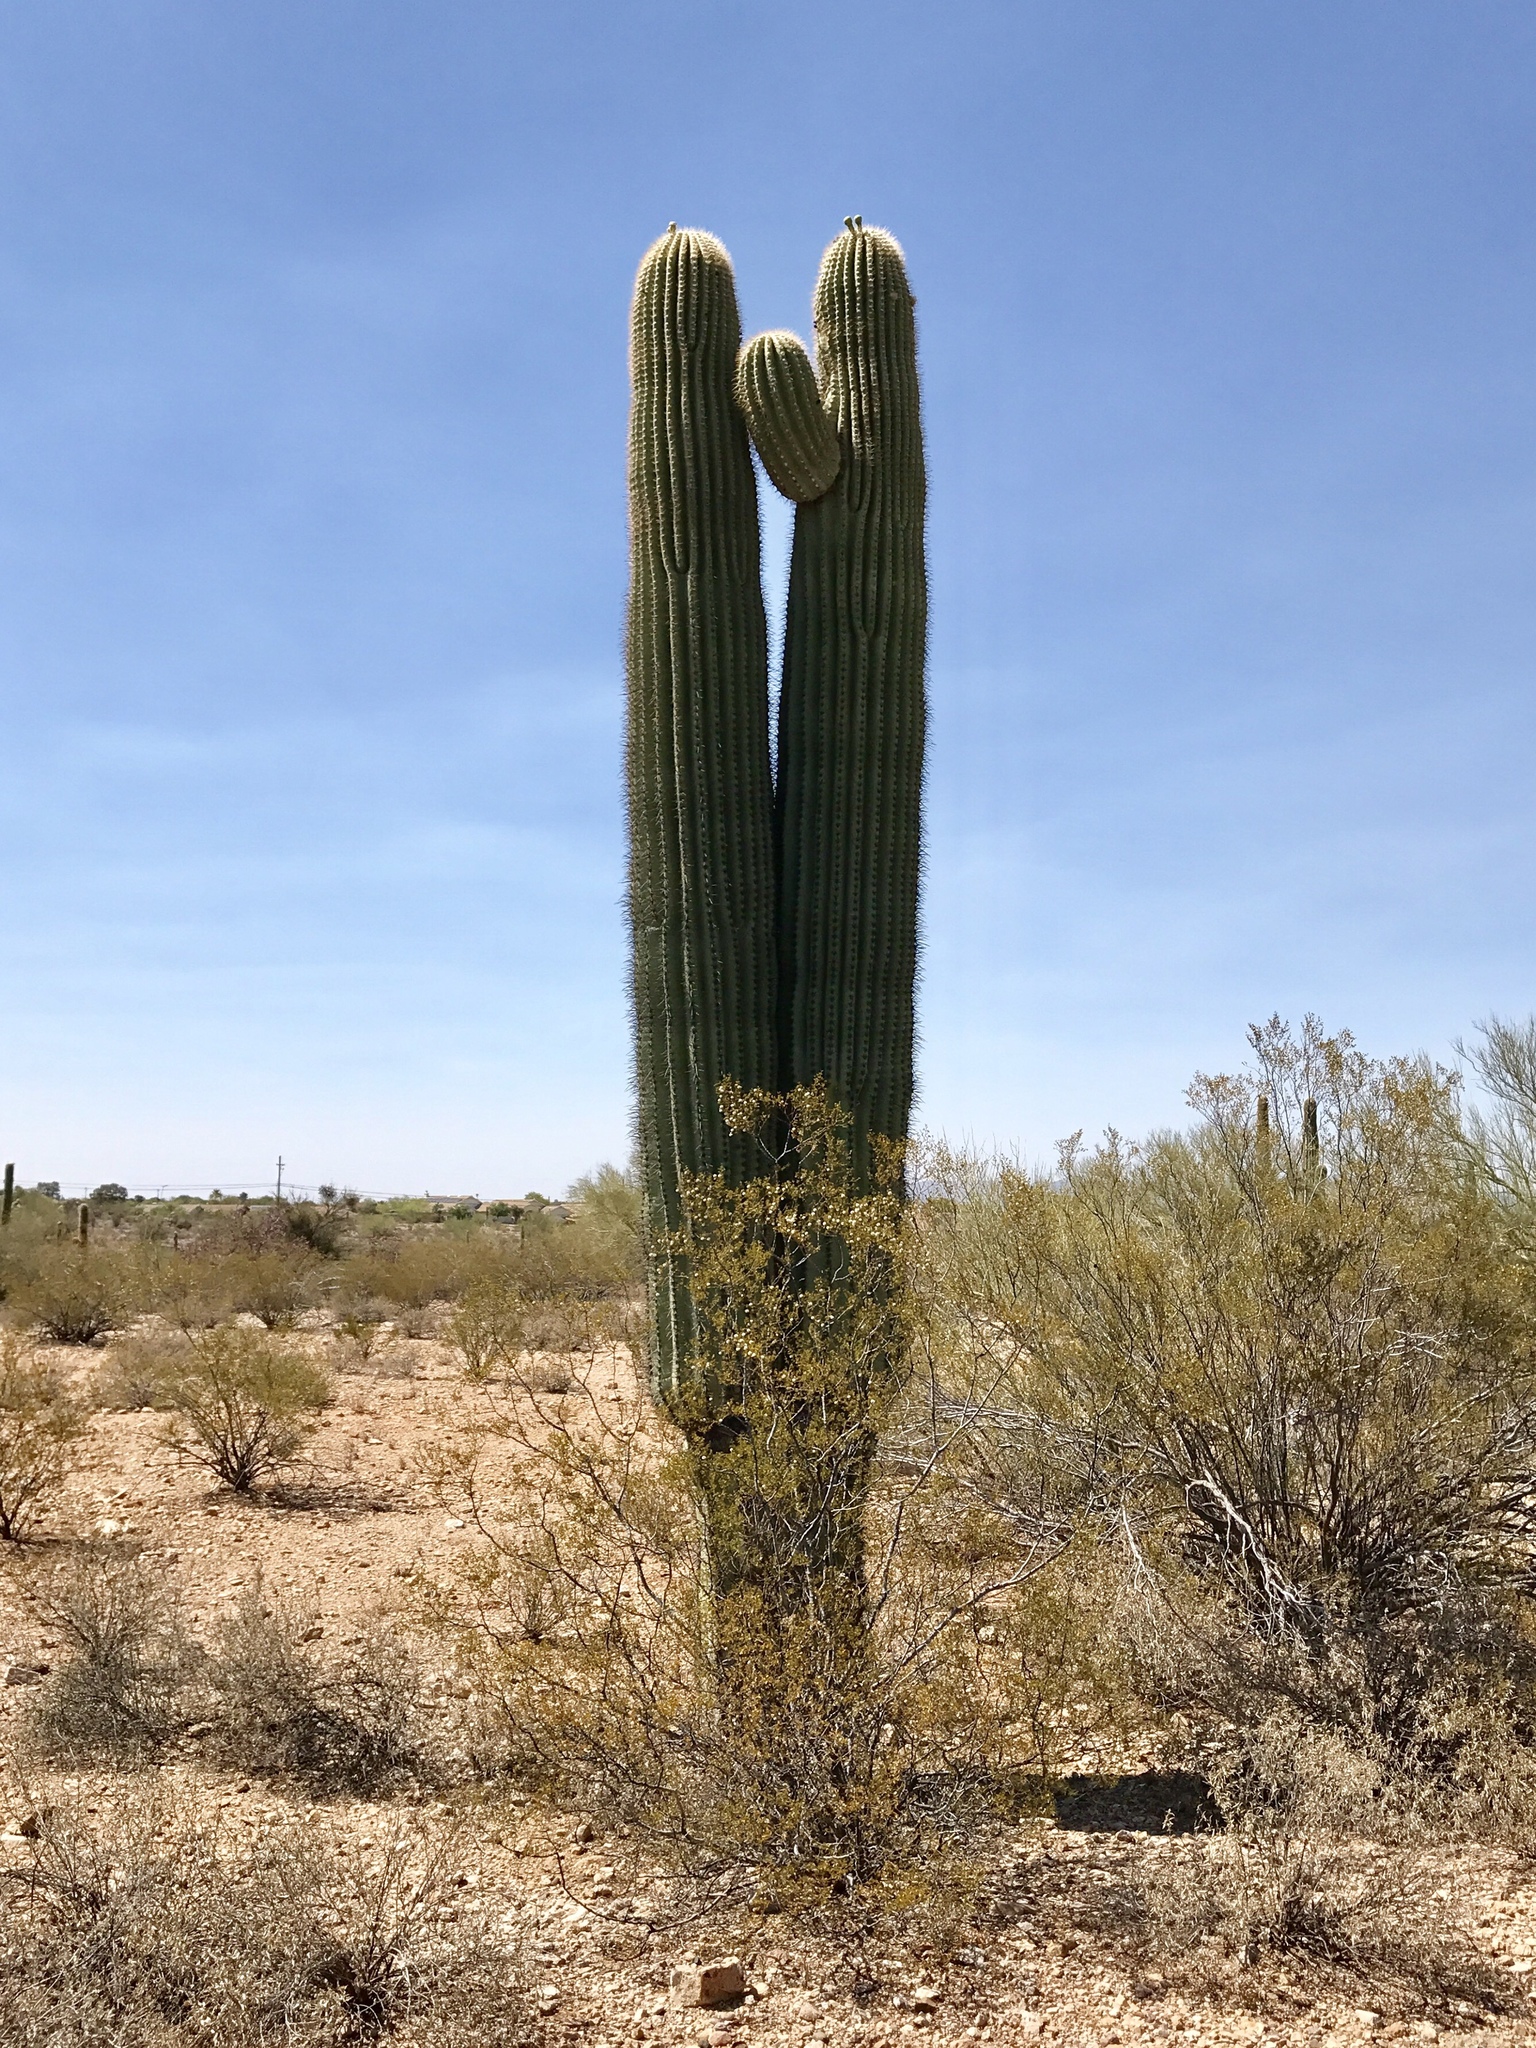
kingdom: Plantae
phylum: Tracheophyta
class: Magnoliopsida
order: Caryophyllales
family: Cactaceae
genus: Carnegiea
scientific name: Carnegiea gigantea
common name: Saguaro
